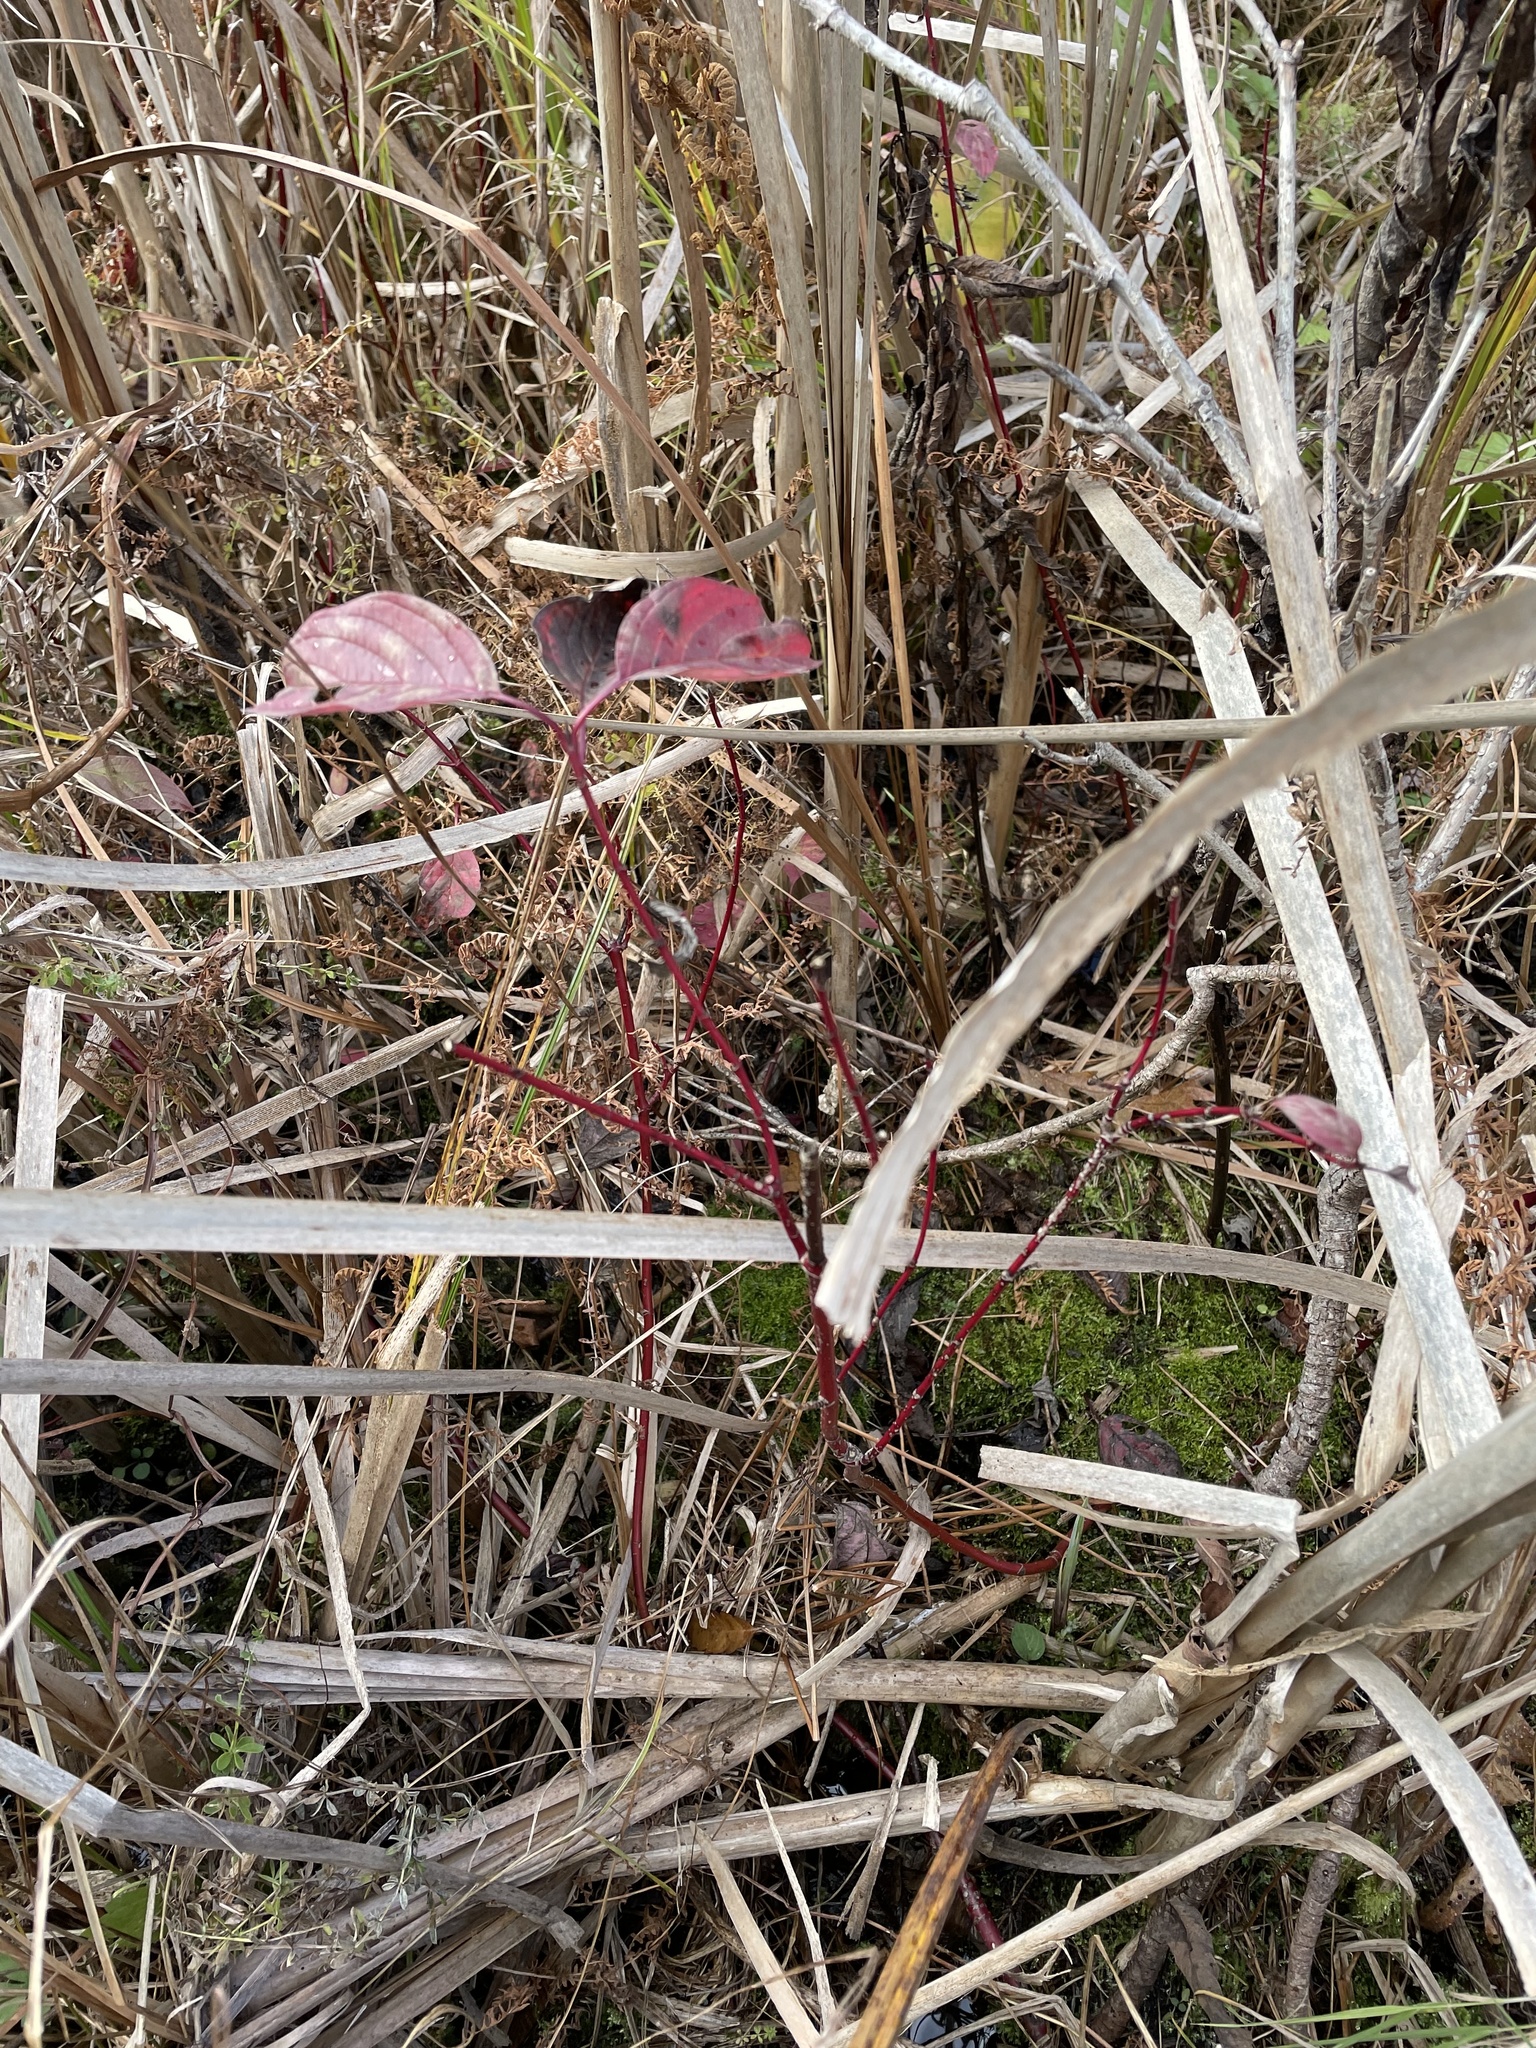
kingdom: Plantae
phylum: Tracheophyta
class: Magnoliopsida
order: Cornales
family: Cornaceae
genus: Cornus
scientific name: Cornus sericea
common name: Red-osier dogwood
